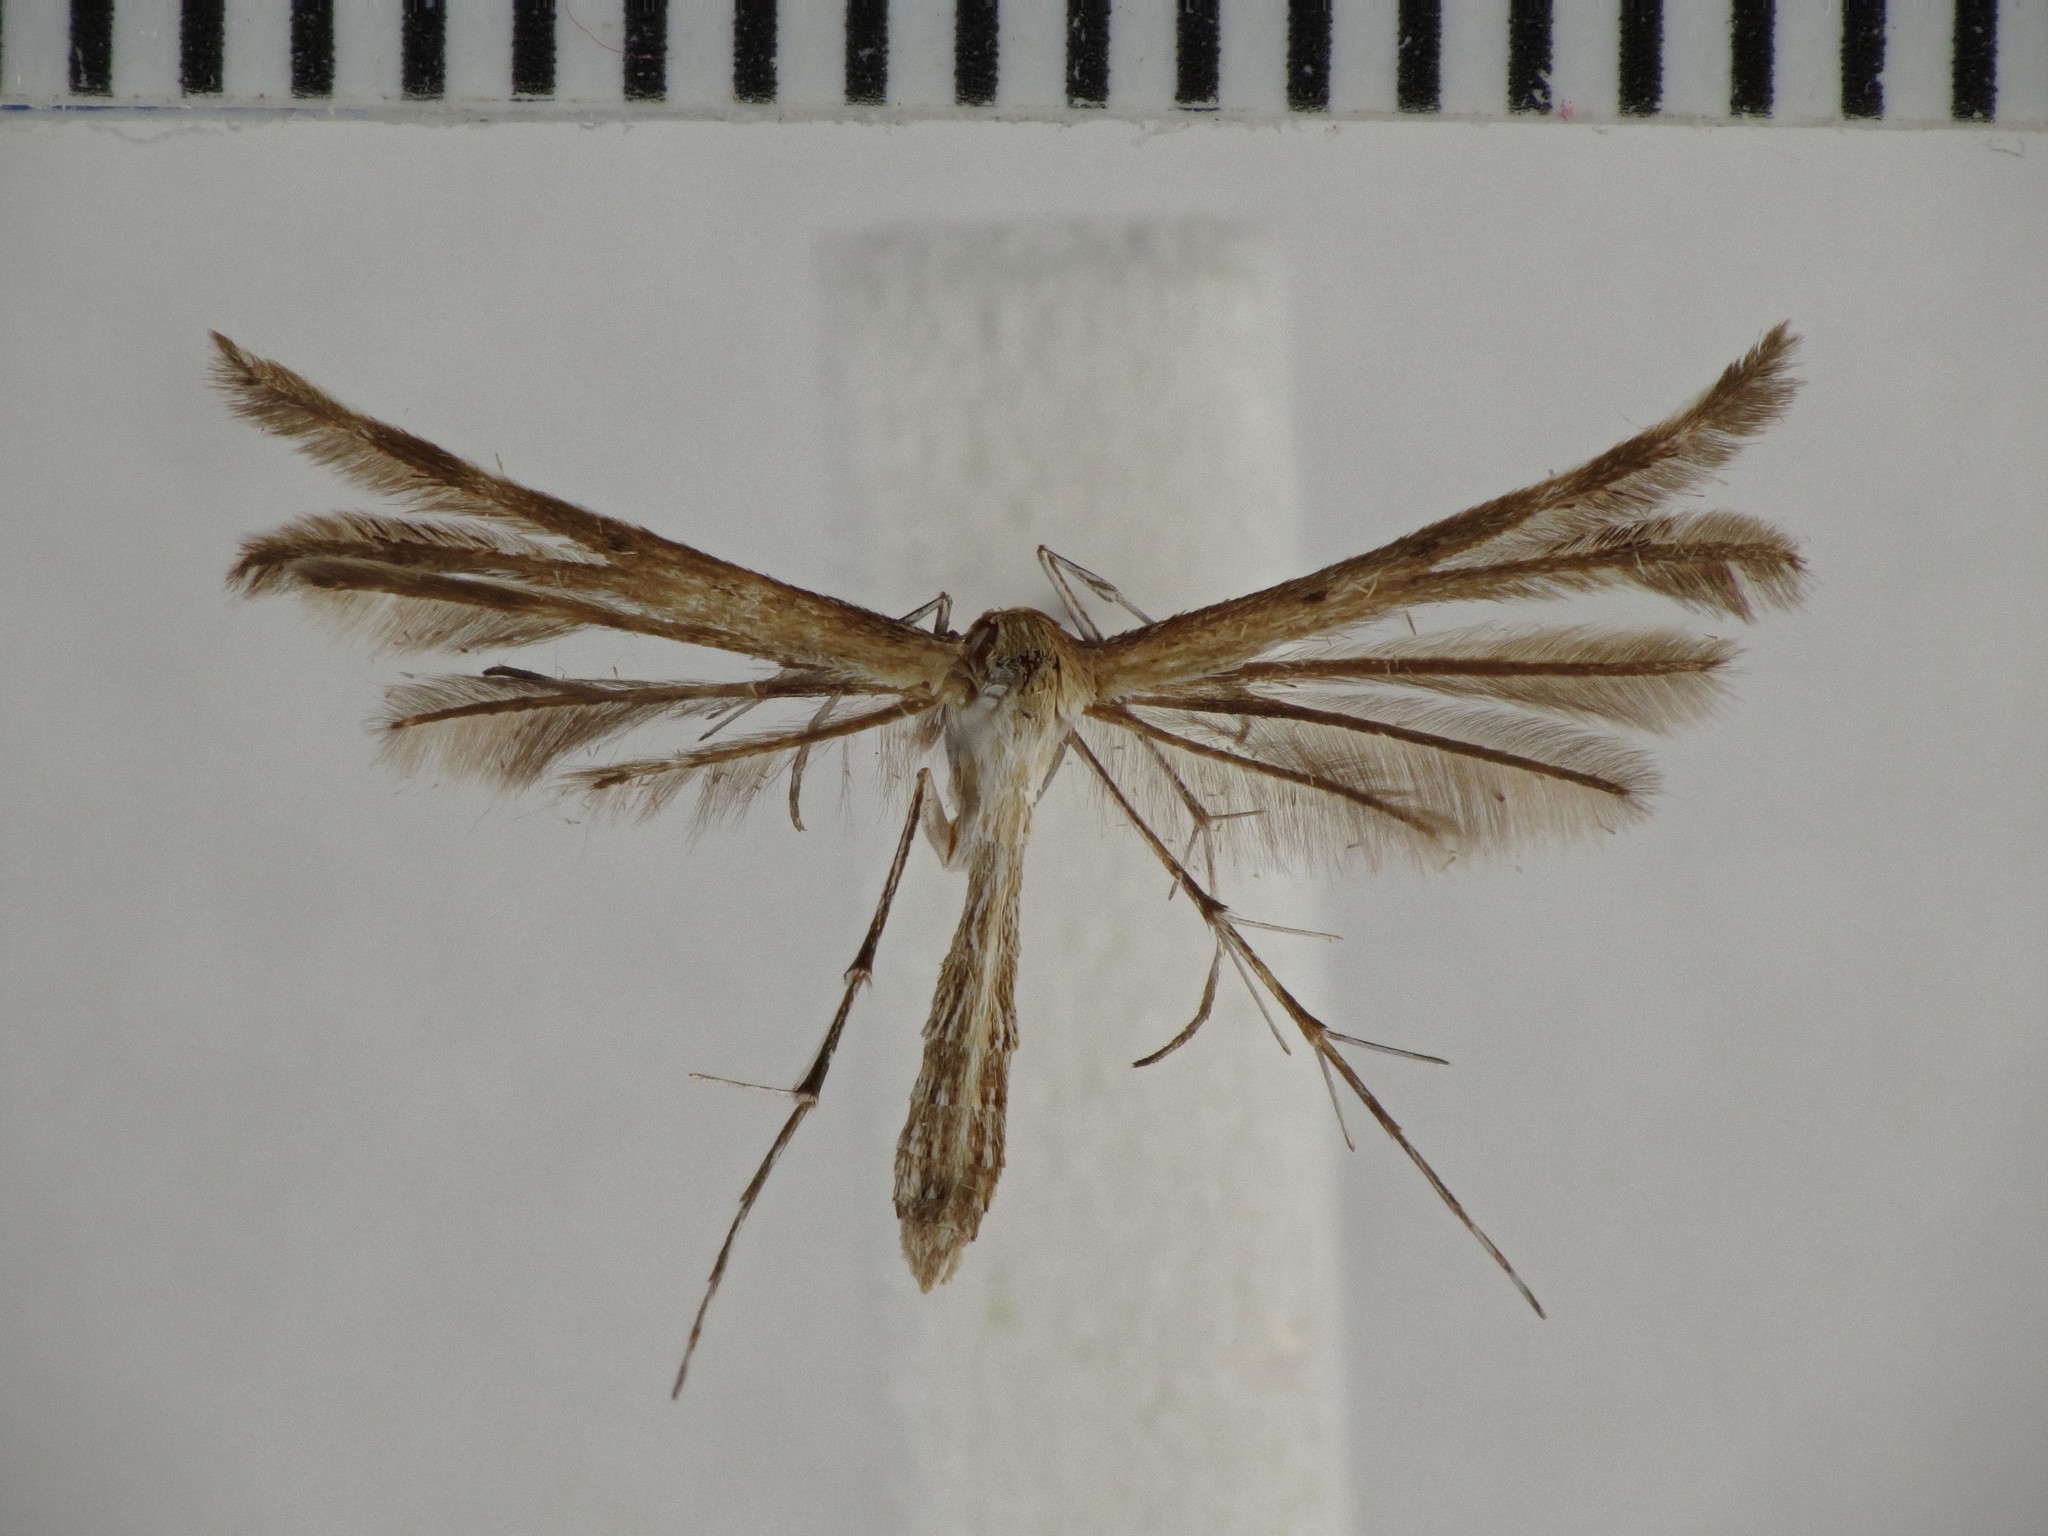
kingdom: Animalia
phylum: Arthropoda
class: Insecta
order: Lepidoptera
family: Pterophoridae
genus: Megalorhipida
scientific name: Megalorhipida leucodactylus
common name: Plume moth
